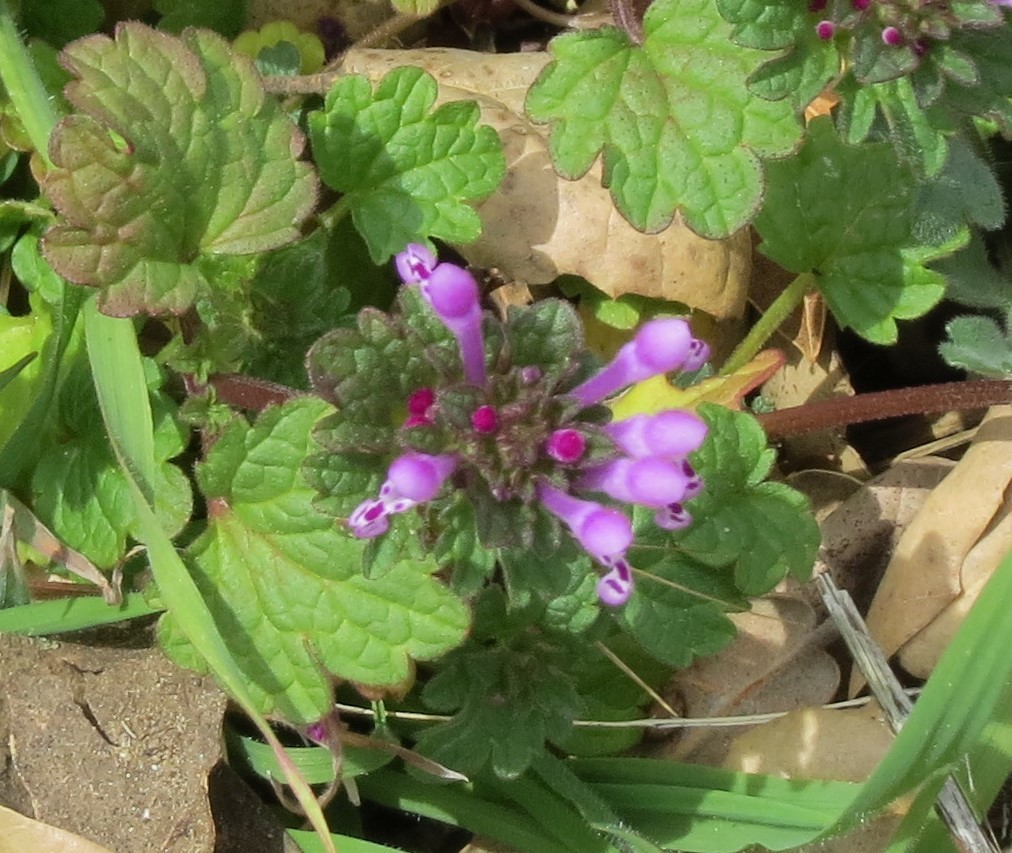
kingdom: Plantae
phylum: Tracheophyta
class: Magnoliopsida
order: Lamiales
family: Lamiaceae
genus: Lamium
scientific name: Lamium amplexicaule
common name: Henbit dead-nettle
